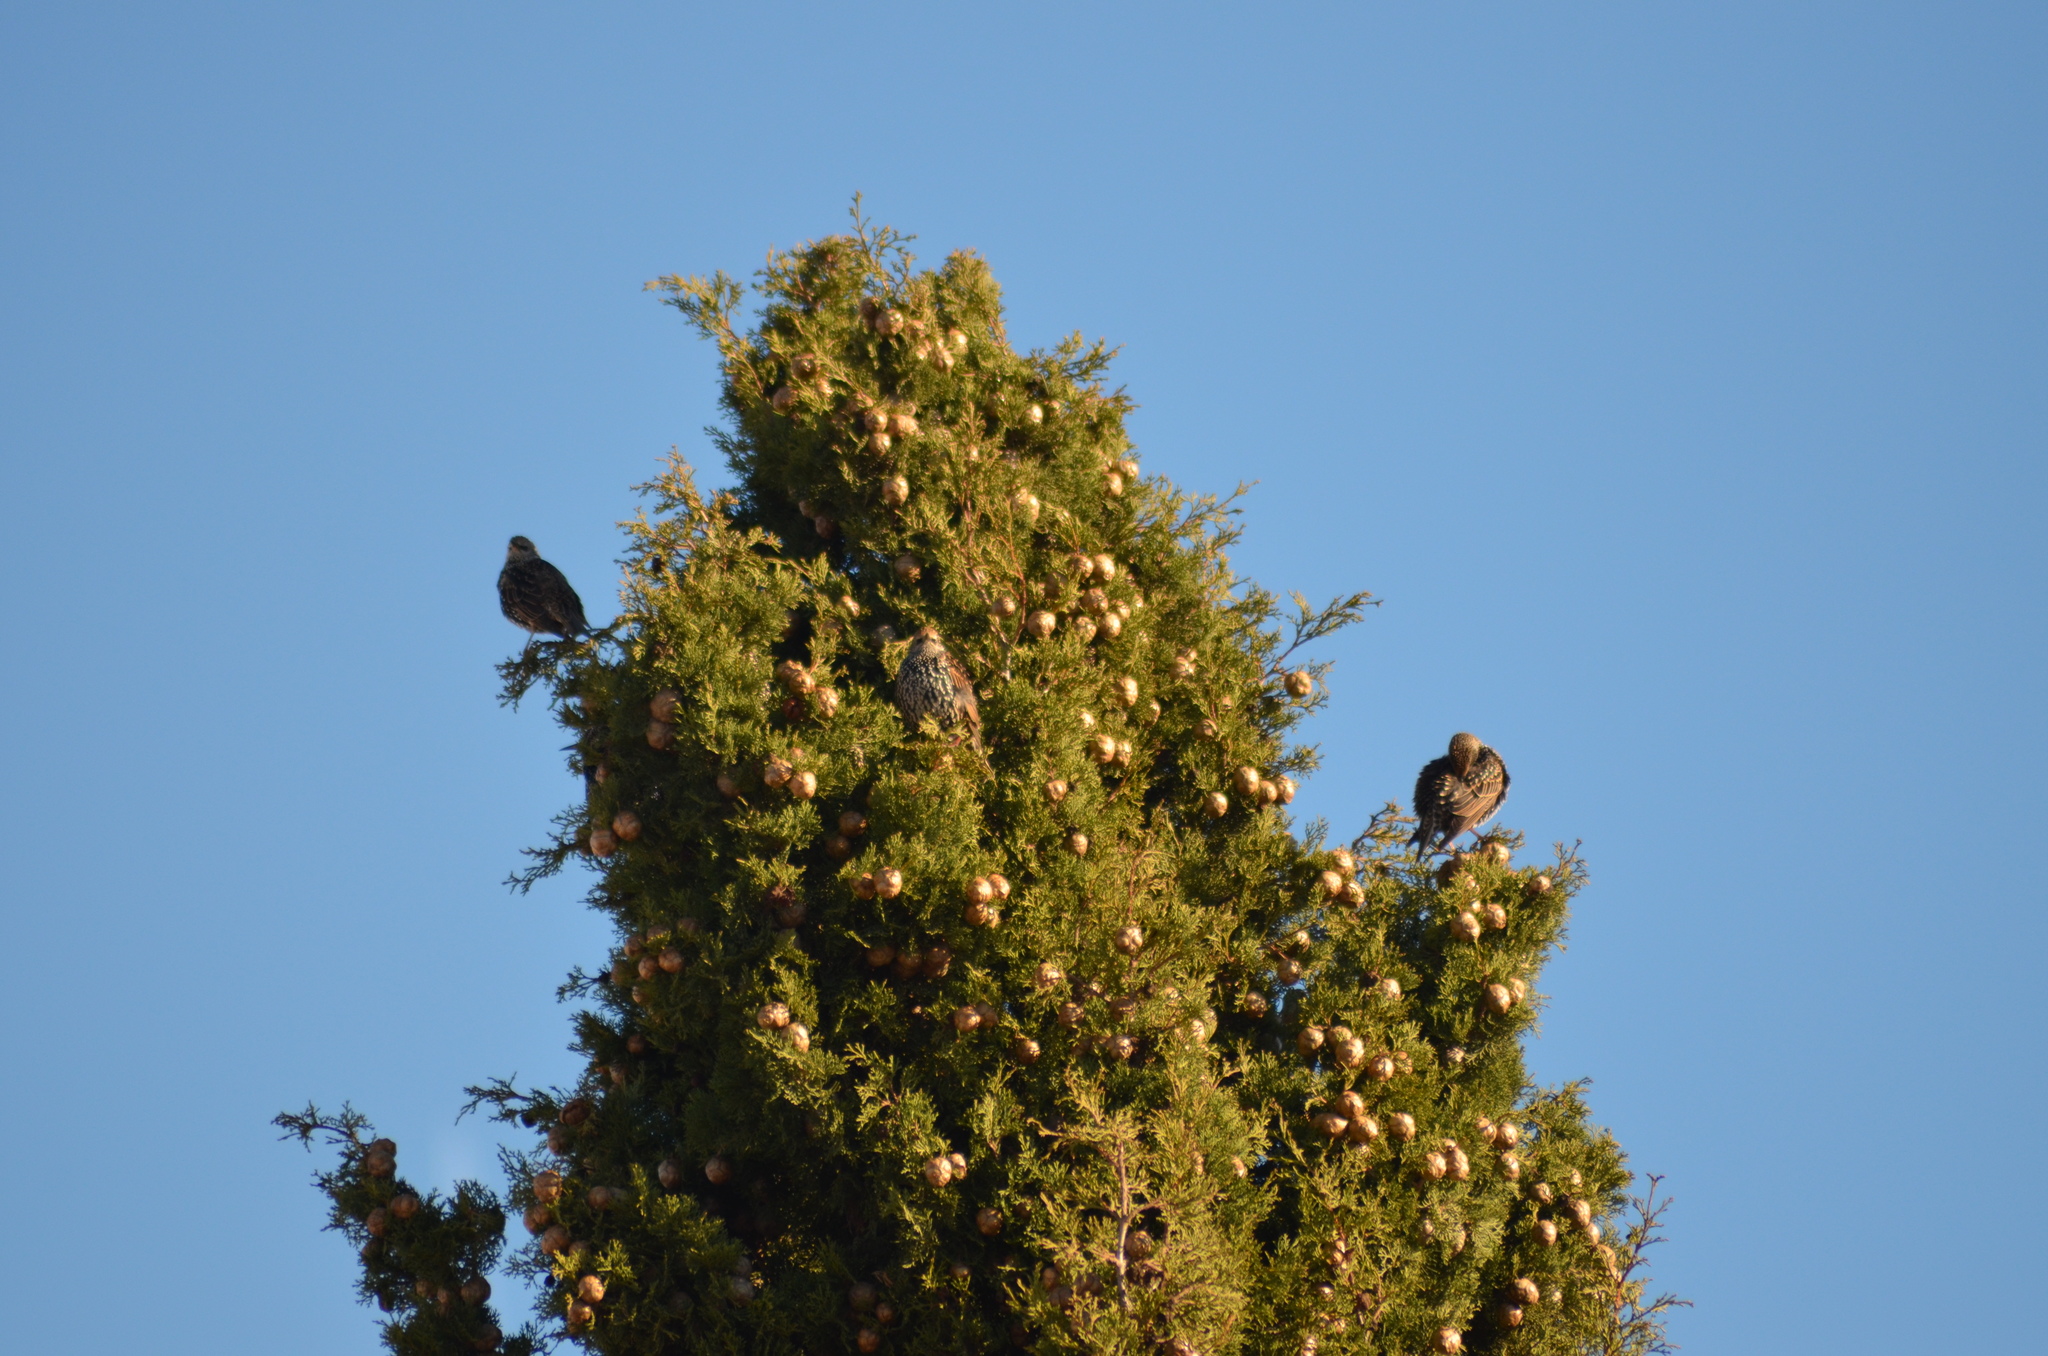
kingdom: Animalia
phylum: Chordata
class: Aves
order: Passeriformes
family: Sturnidae
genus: Sturnus
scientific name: Sturnus vulgaris
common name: Common starling
